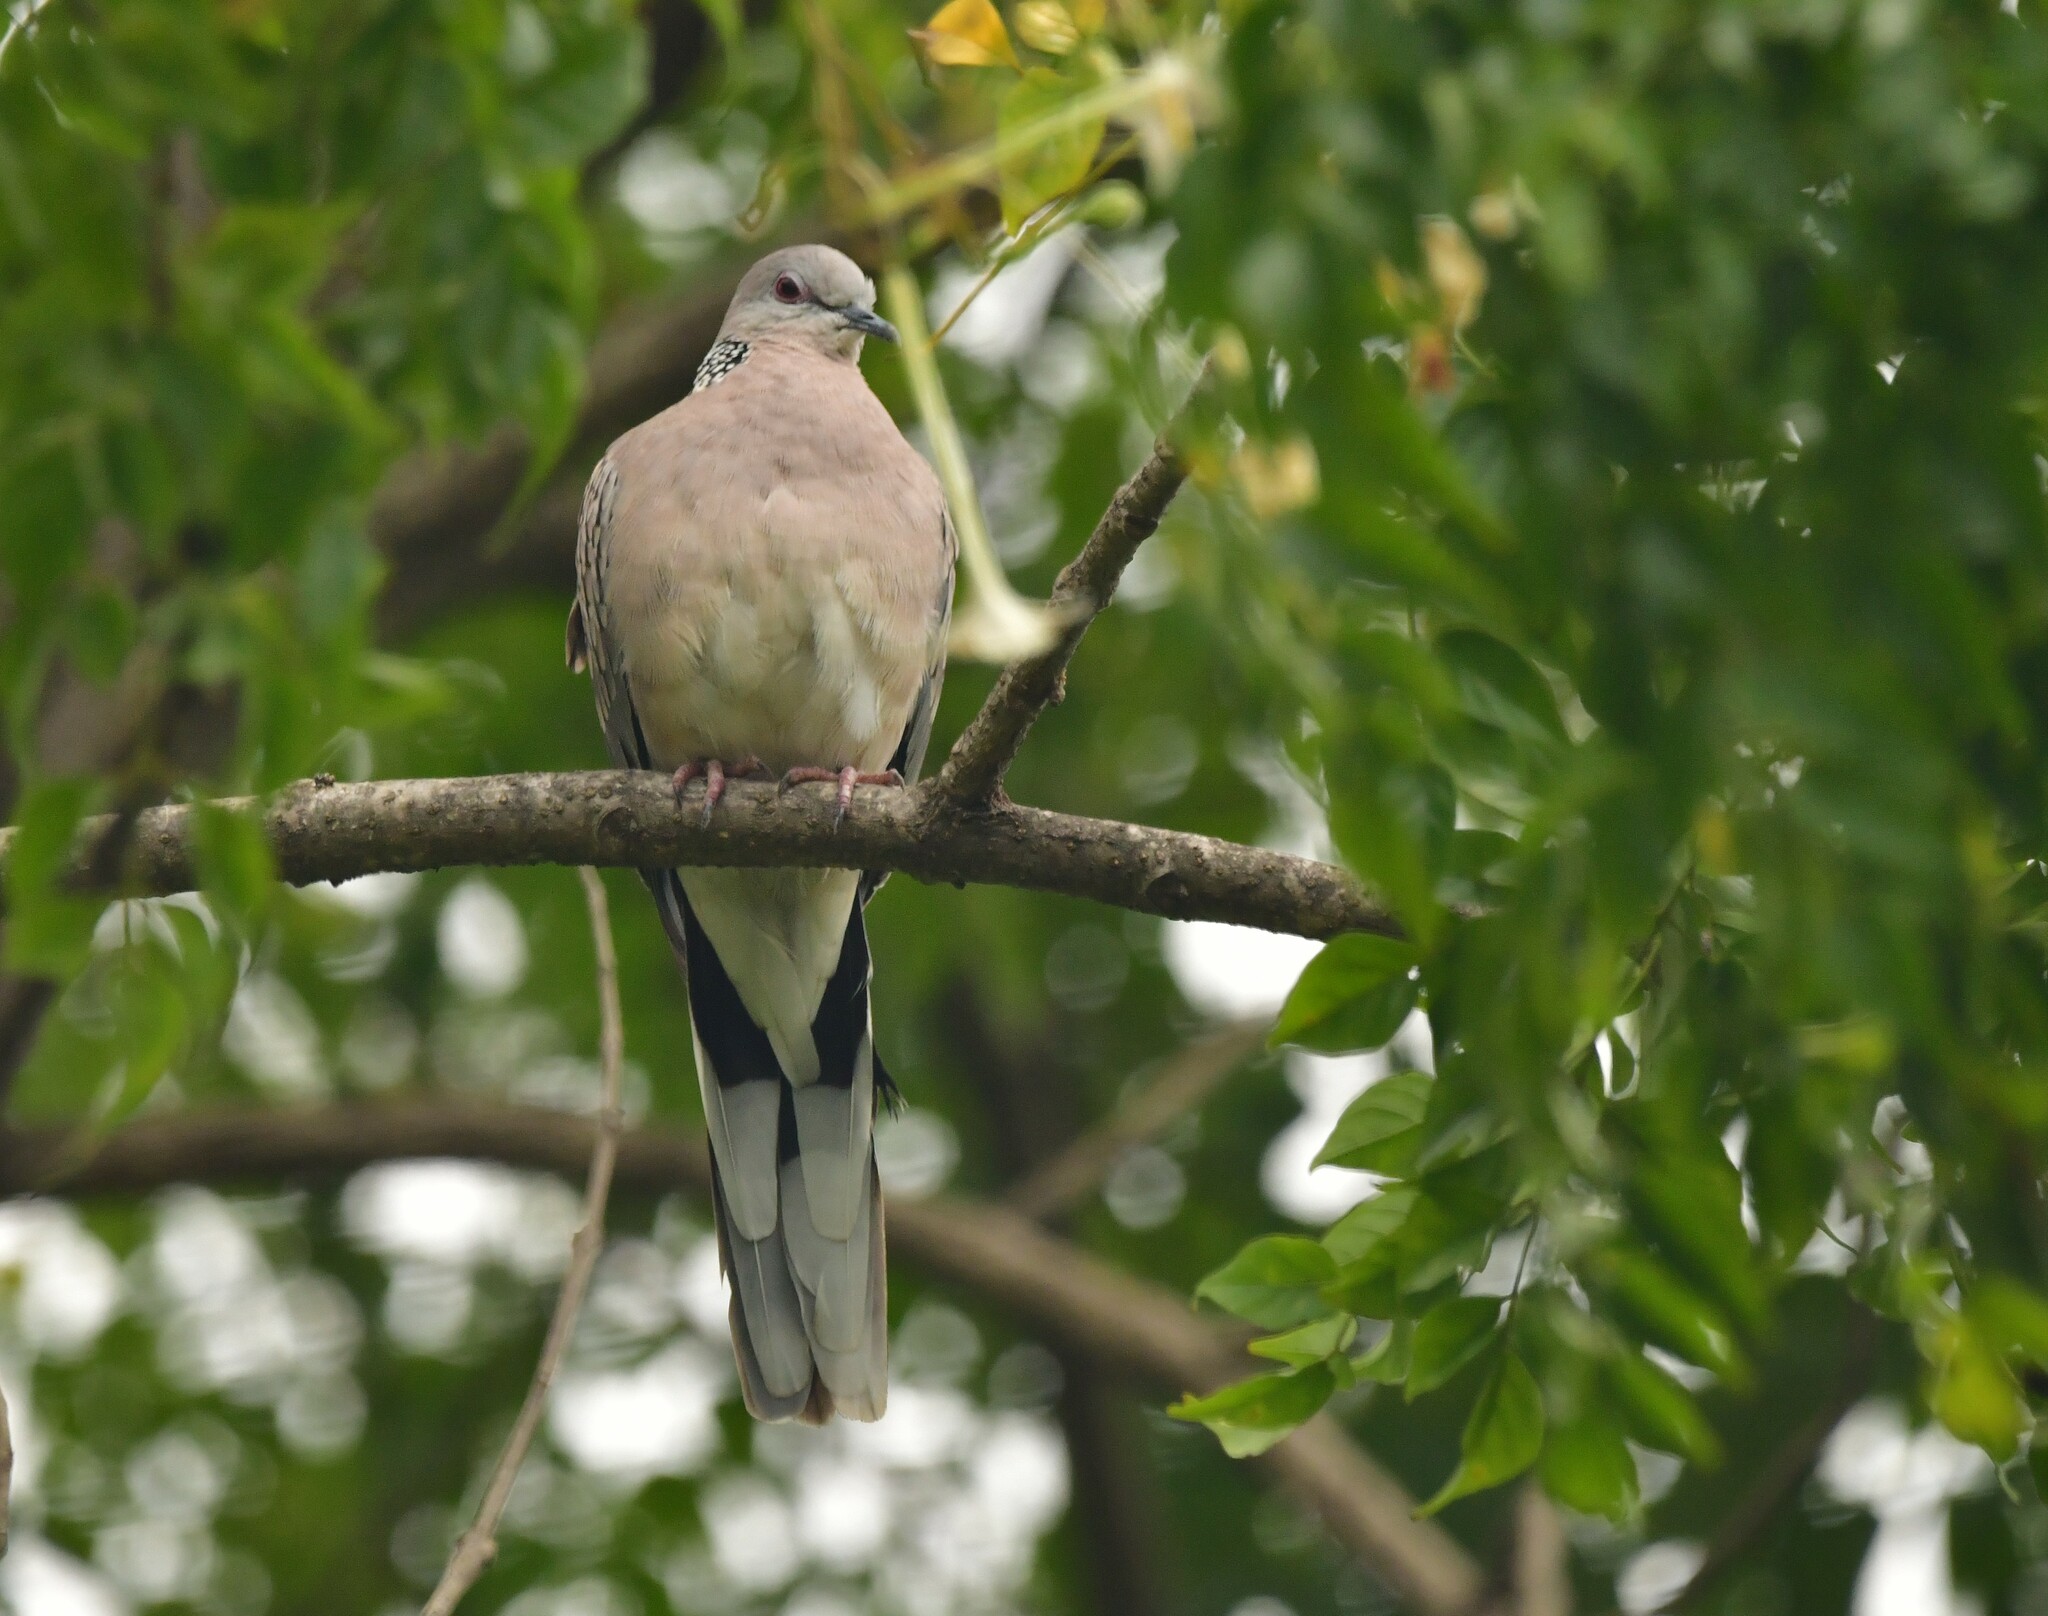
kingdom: Animalia
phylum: Chordata
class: Aves
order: Columbiformes
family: Columbidae
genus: Spilopelia
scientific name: Spilopelia chinensis
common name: Spotted dove
